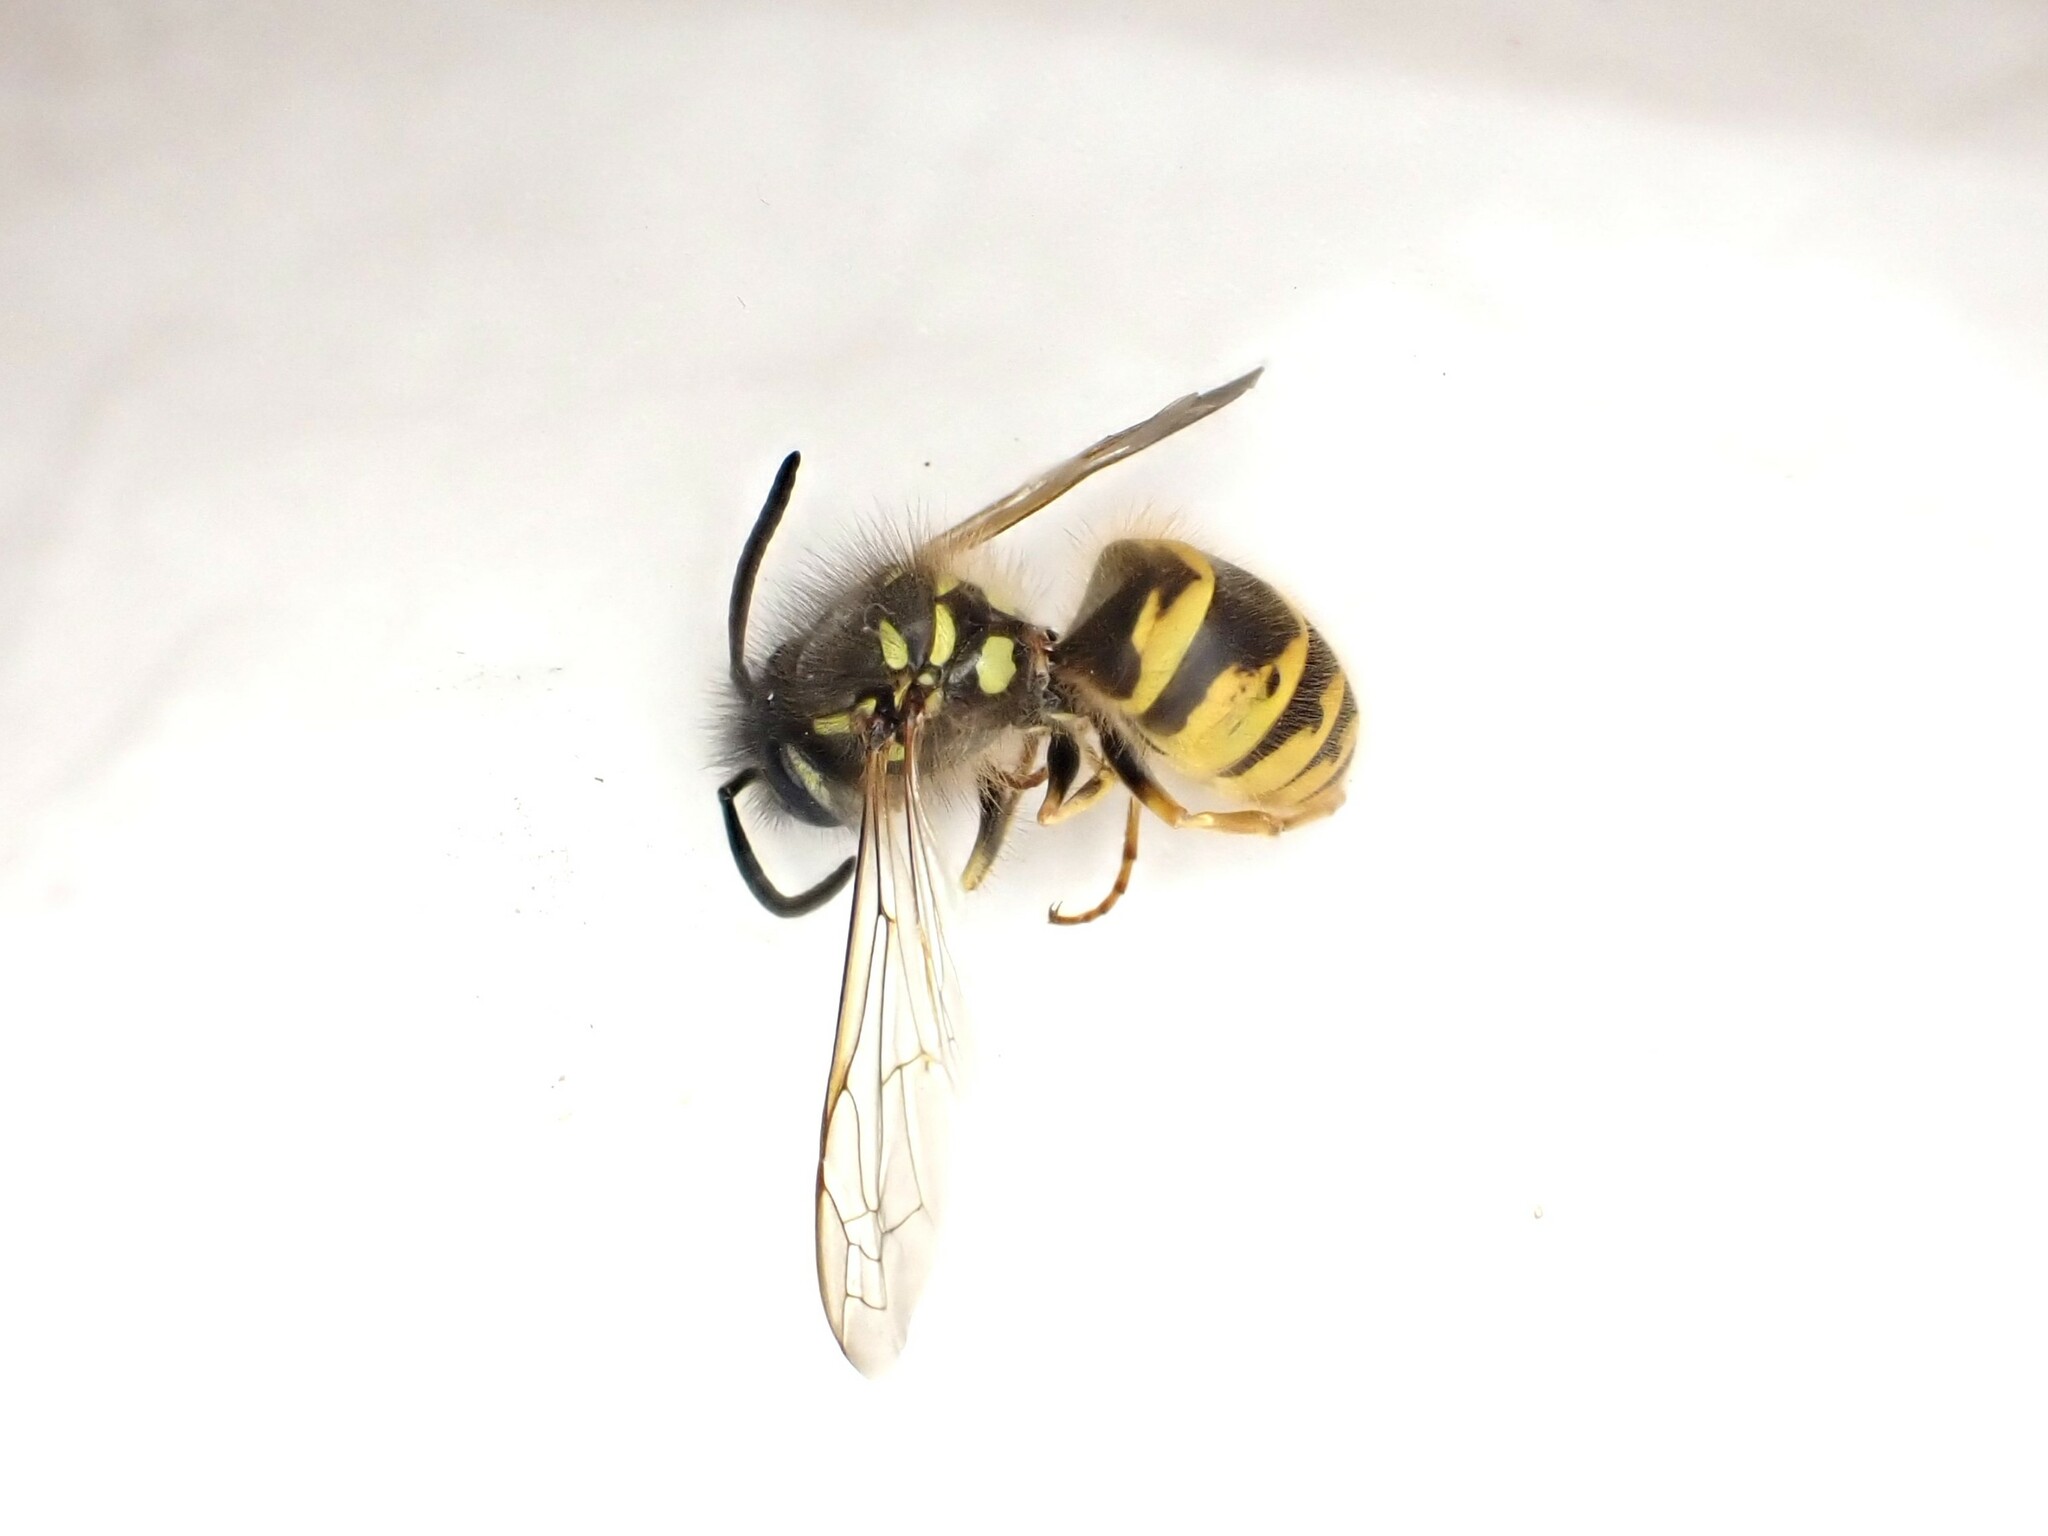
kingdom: Animalia
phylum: Arthropoda
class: Insecta
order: Hymenoptera
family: Vespidae
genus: Vespula
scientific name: Vespula vulgaris
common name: Common wasp
